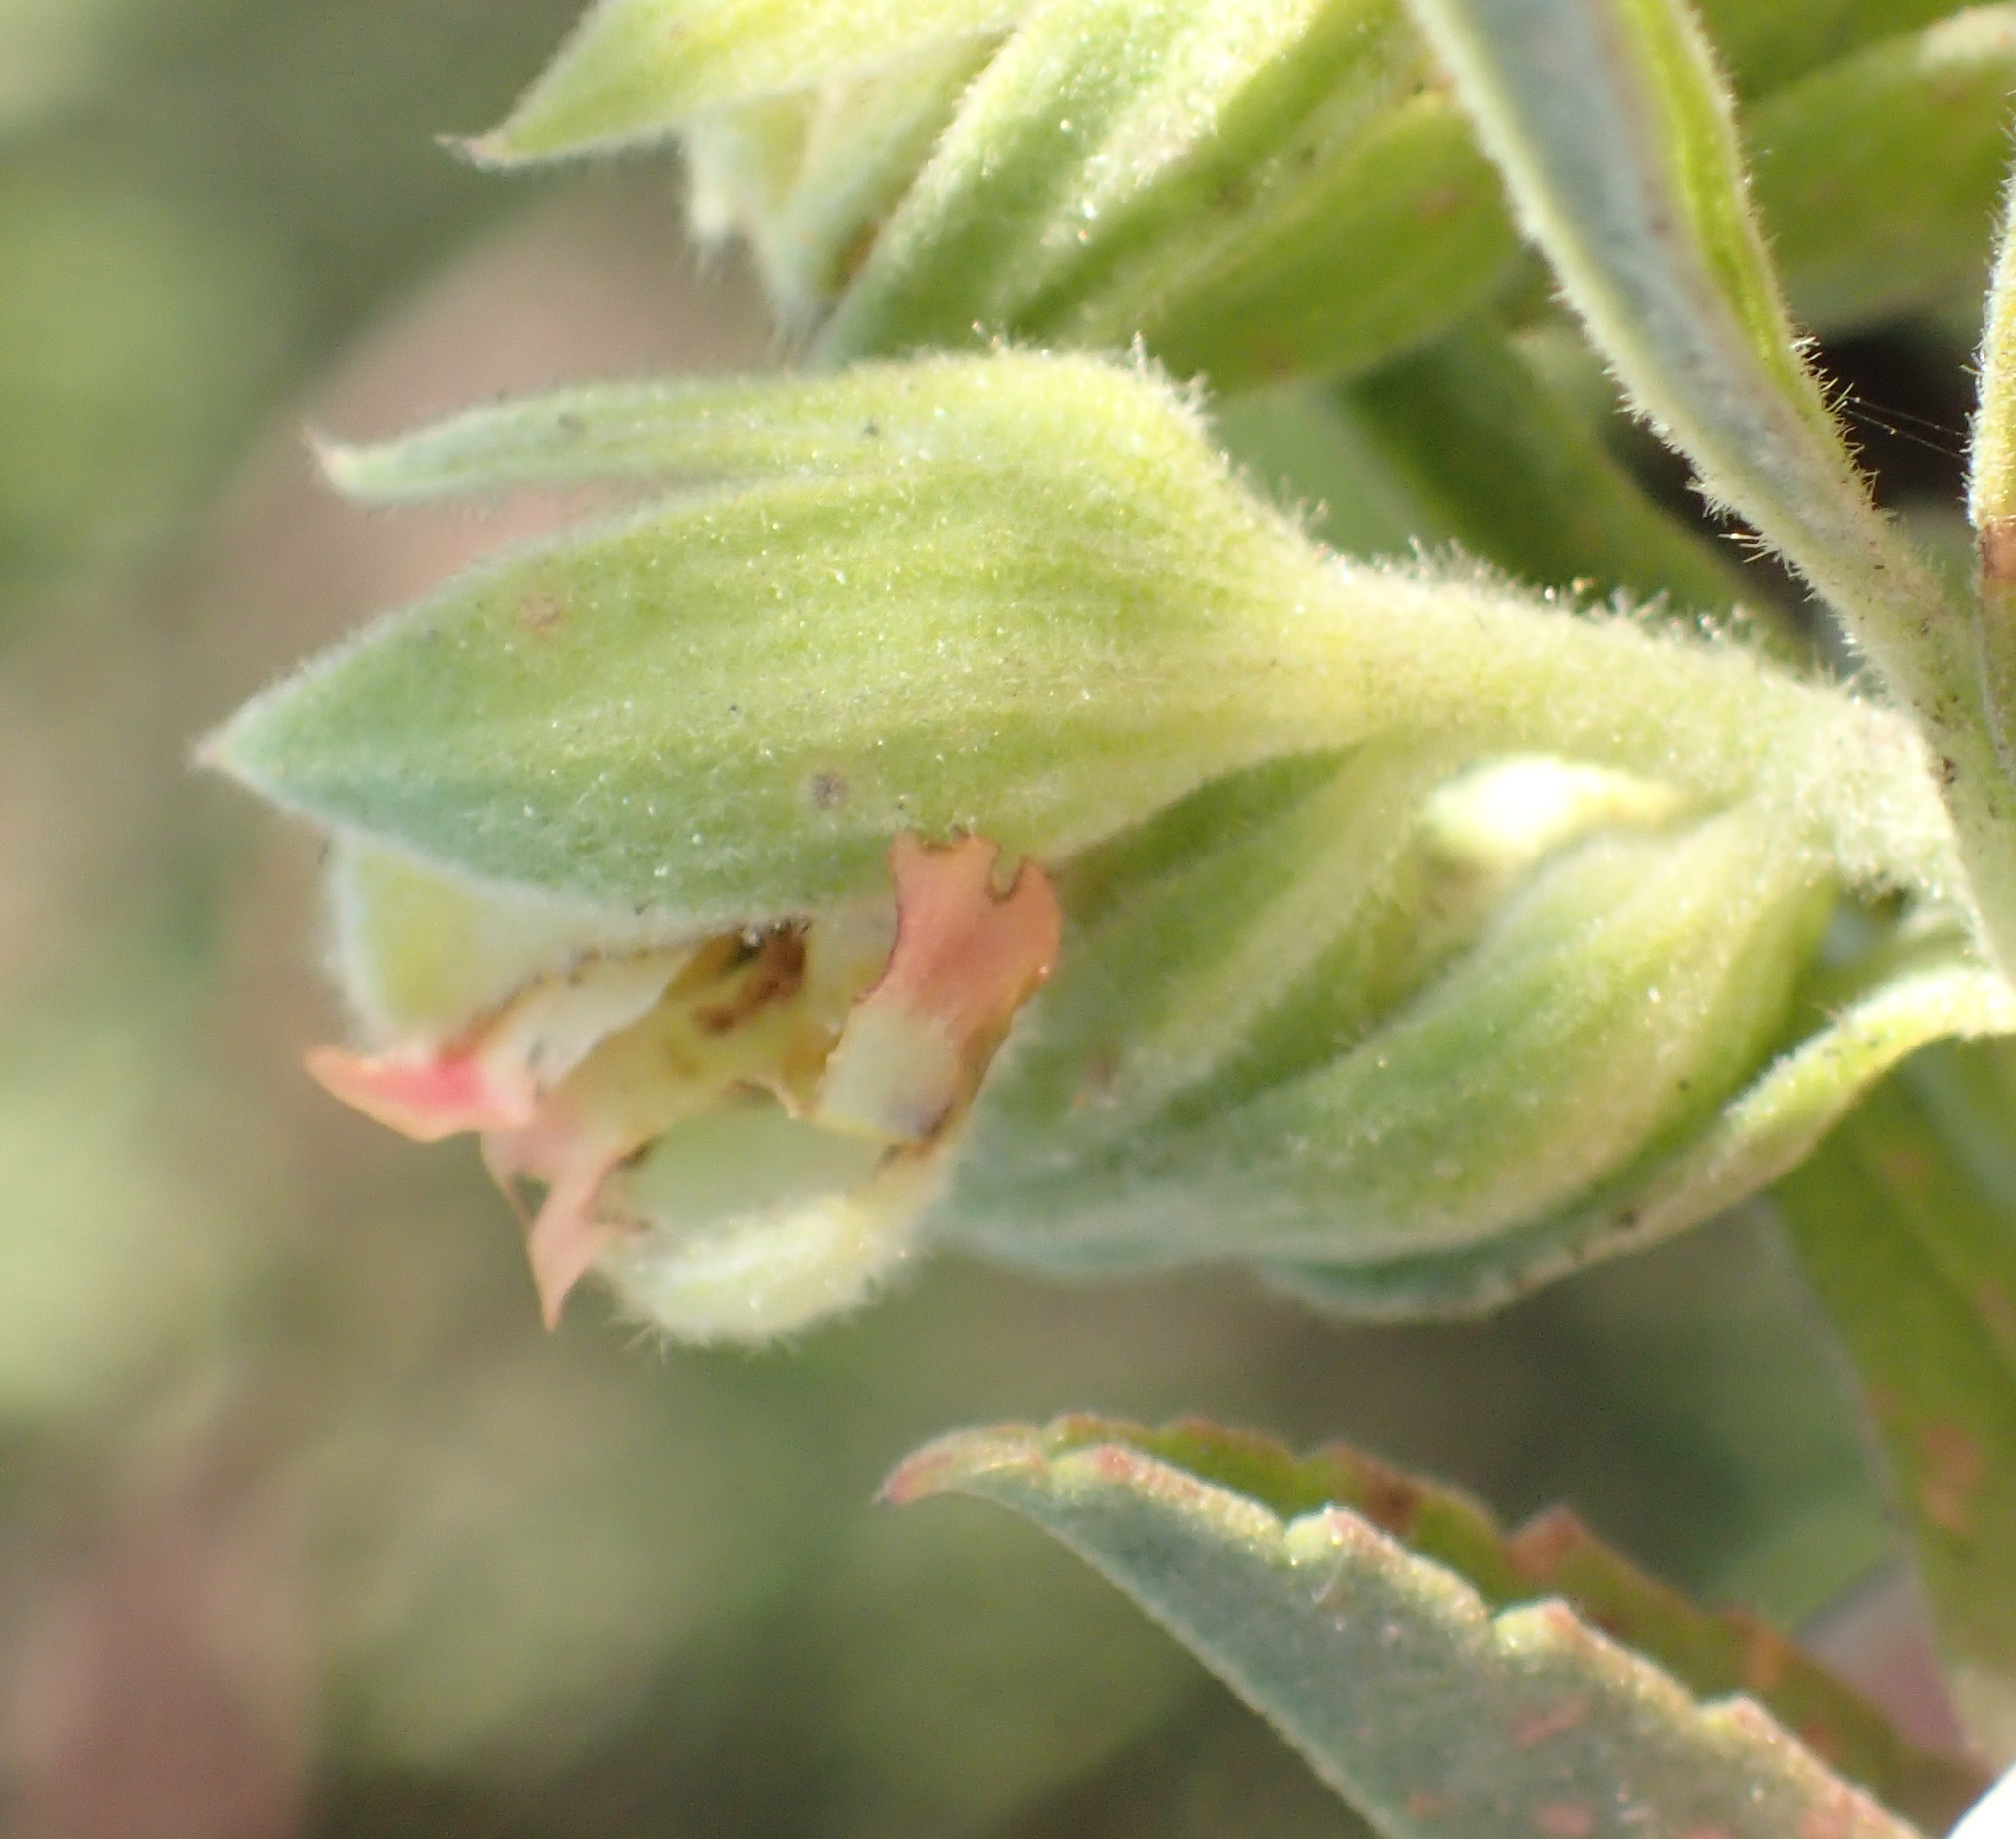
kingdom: Plantae
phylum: Tracheophyta
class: Magnoliopsida
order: Malvales
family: Malvaceae
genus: Hermannia
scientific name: Hermannia hyssopifolia
